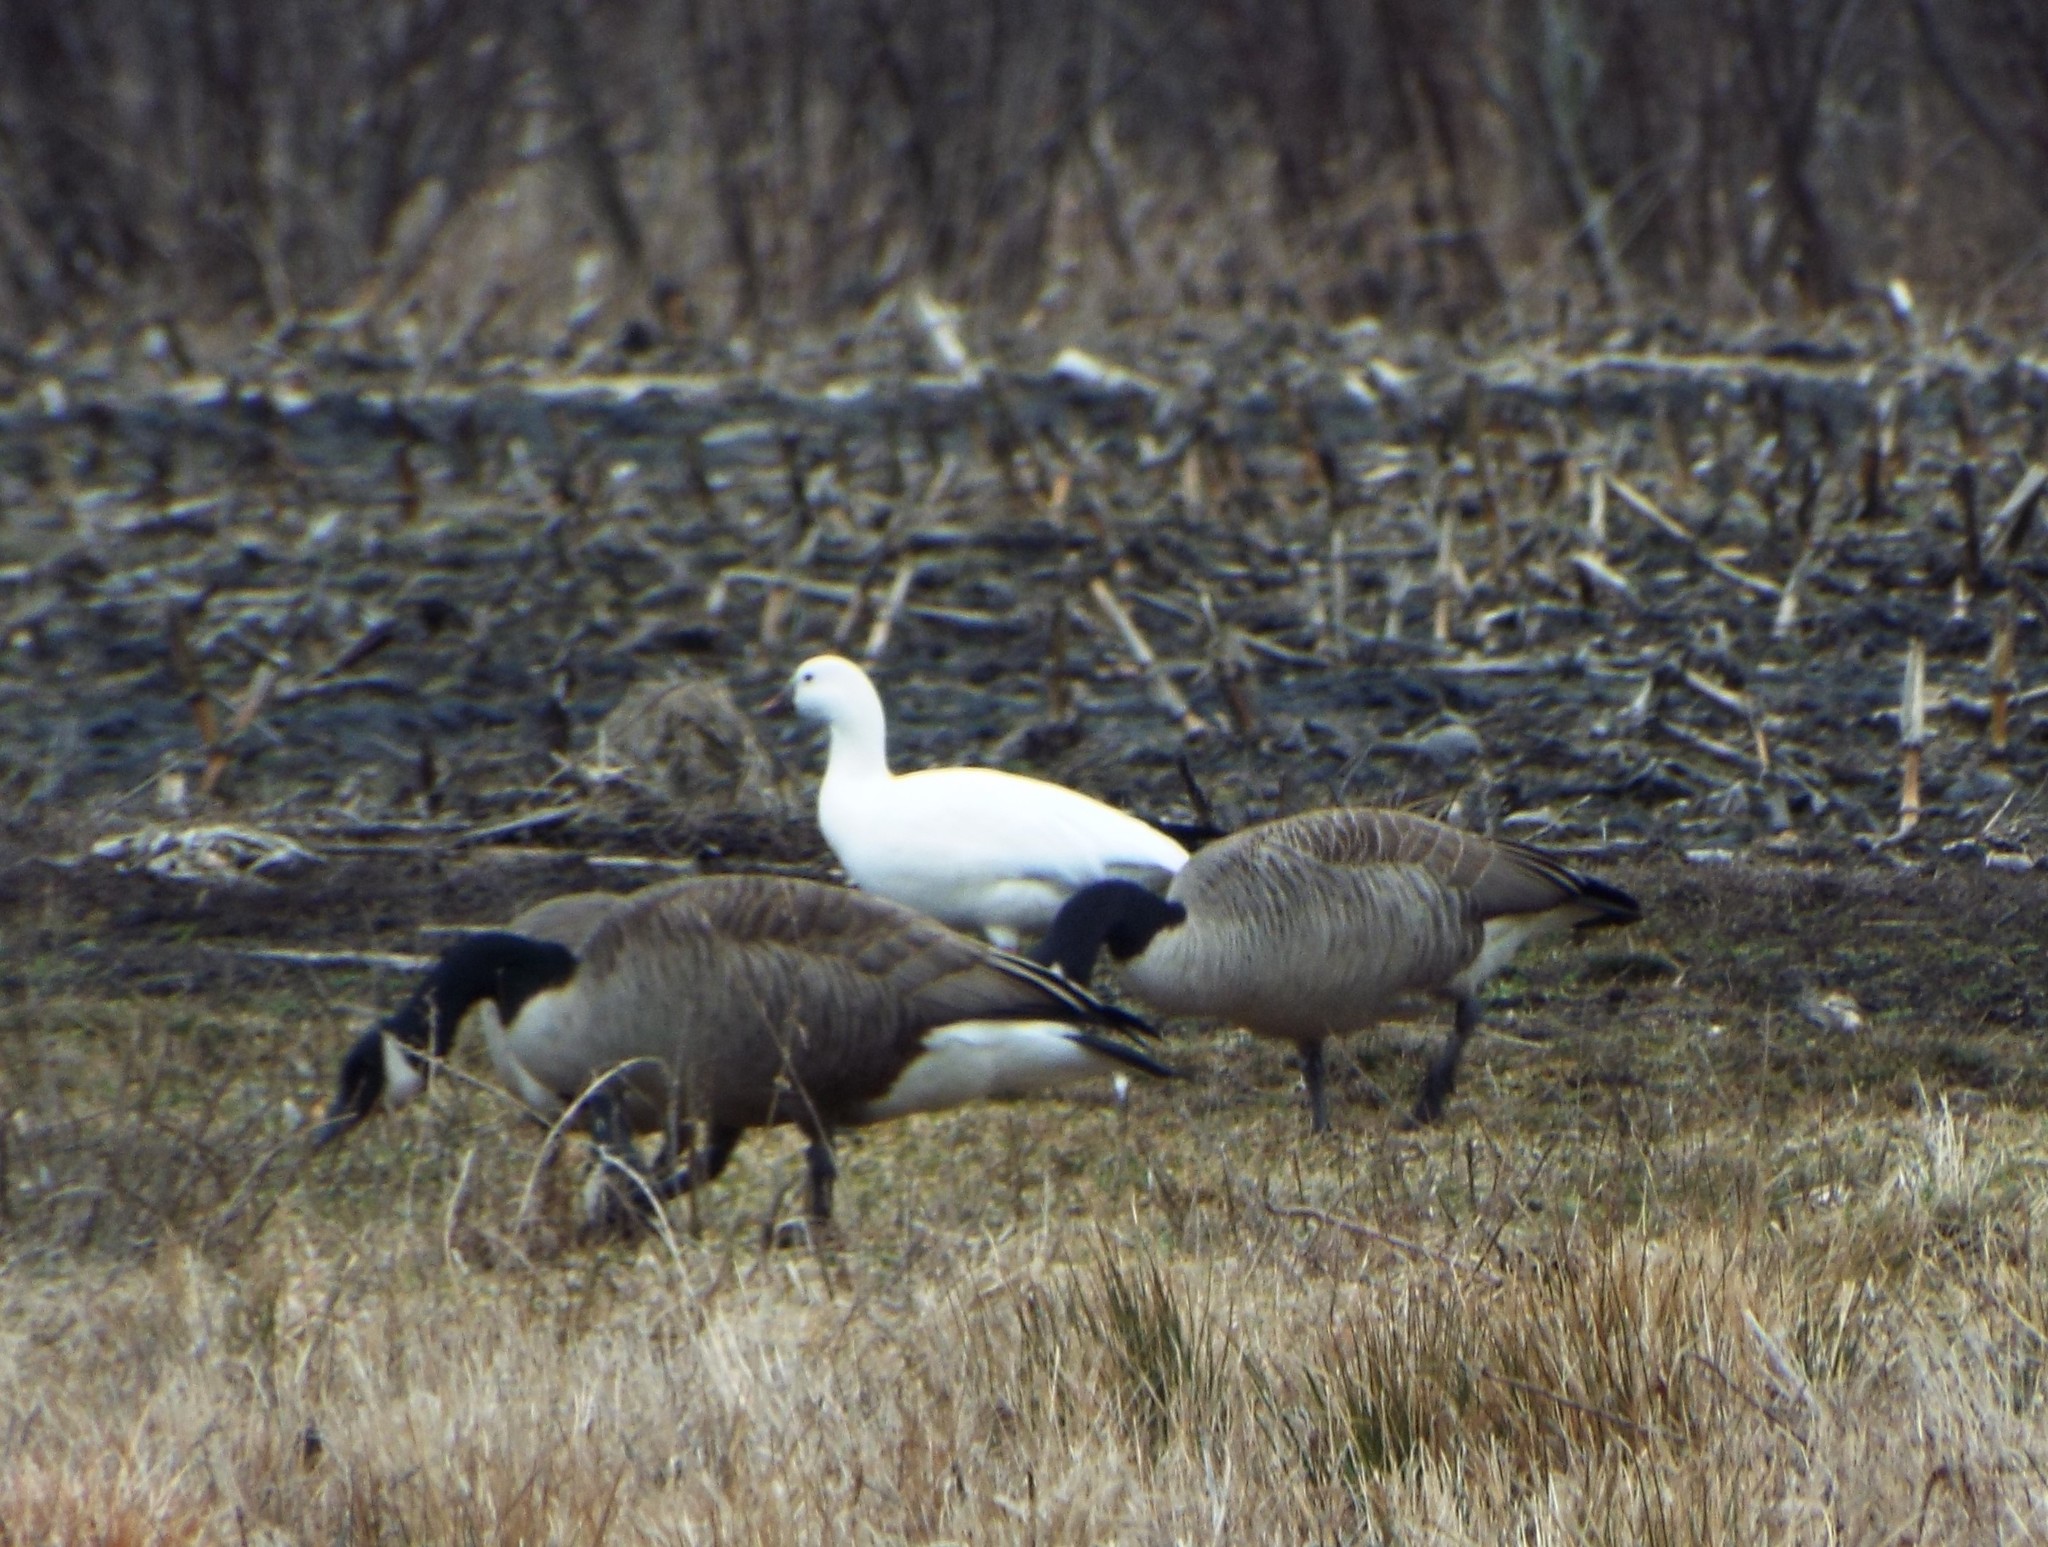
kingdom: Animalia
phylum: Chordata
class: Aves
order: Anseriformes
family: Anatidae
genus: Anser
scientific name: Anser rossii
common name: Ross's goose
